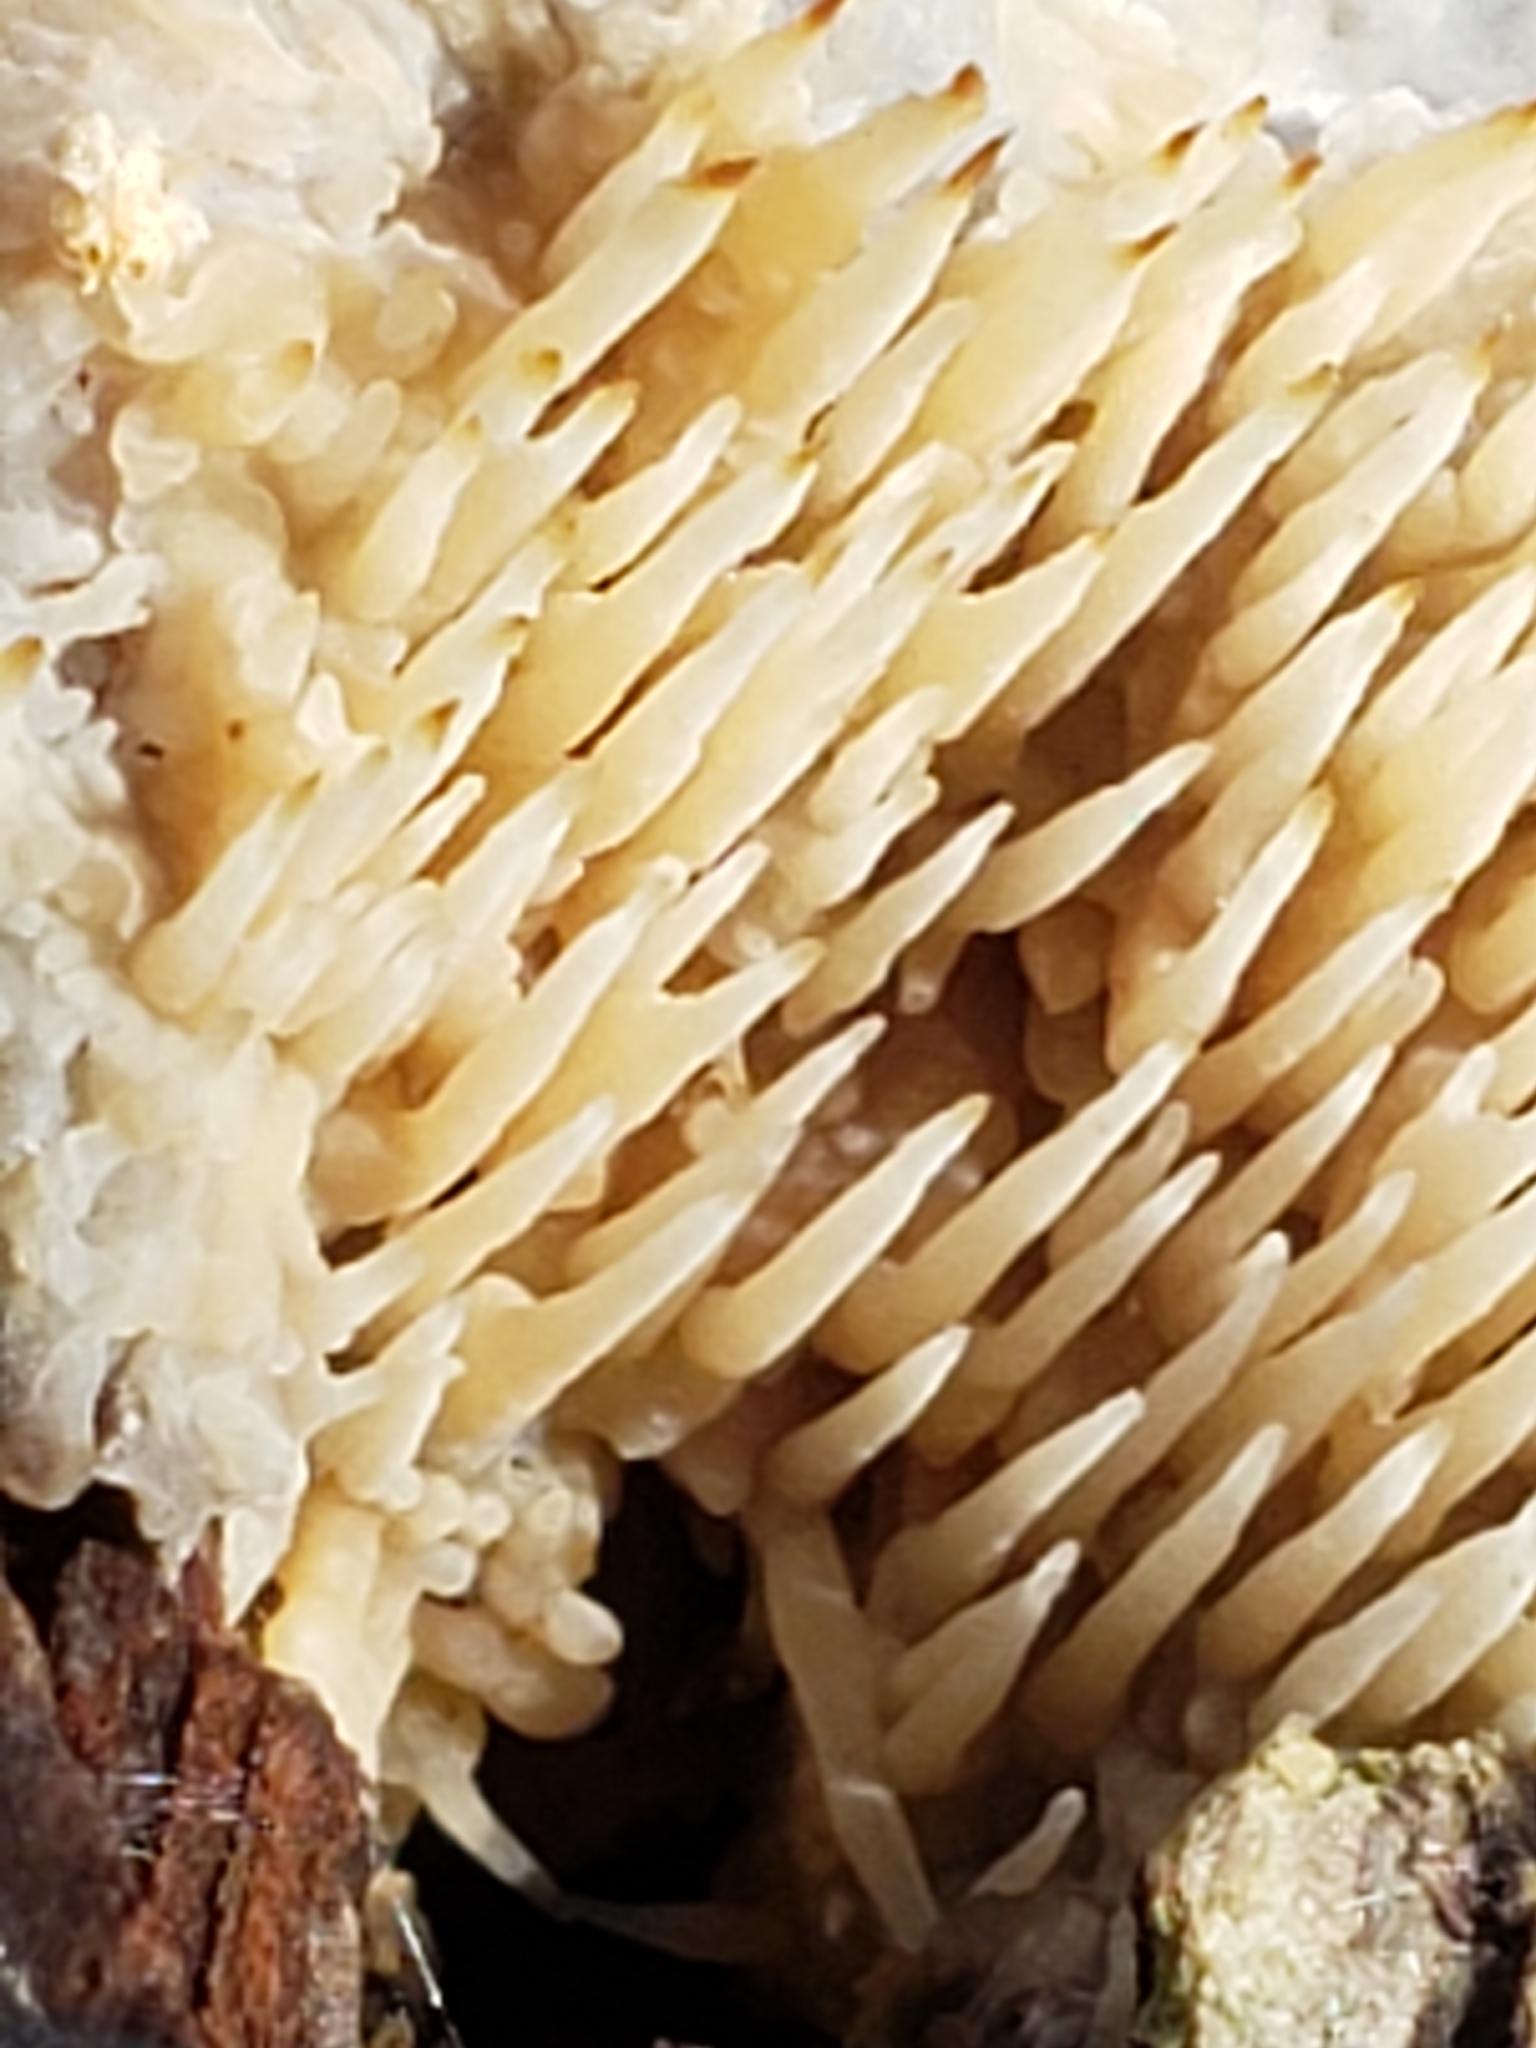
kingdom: Fungi
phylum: Basidiomycota
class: Agaricomycetes
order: Agaricales
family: Radulomycetaceae
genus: Radulomyces
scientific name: Radulomyces copelandii
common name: Asian beauty
